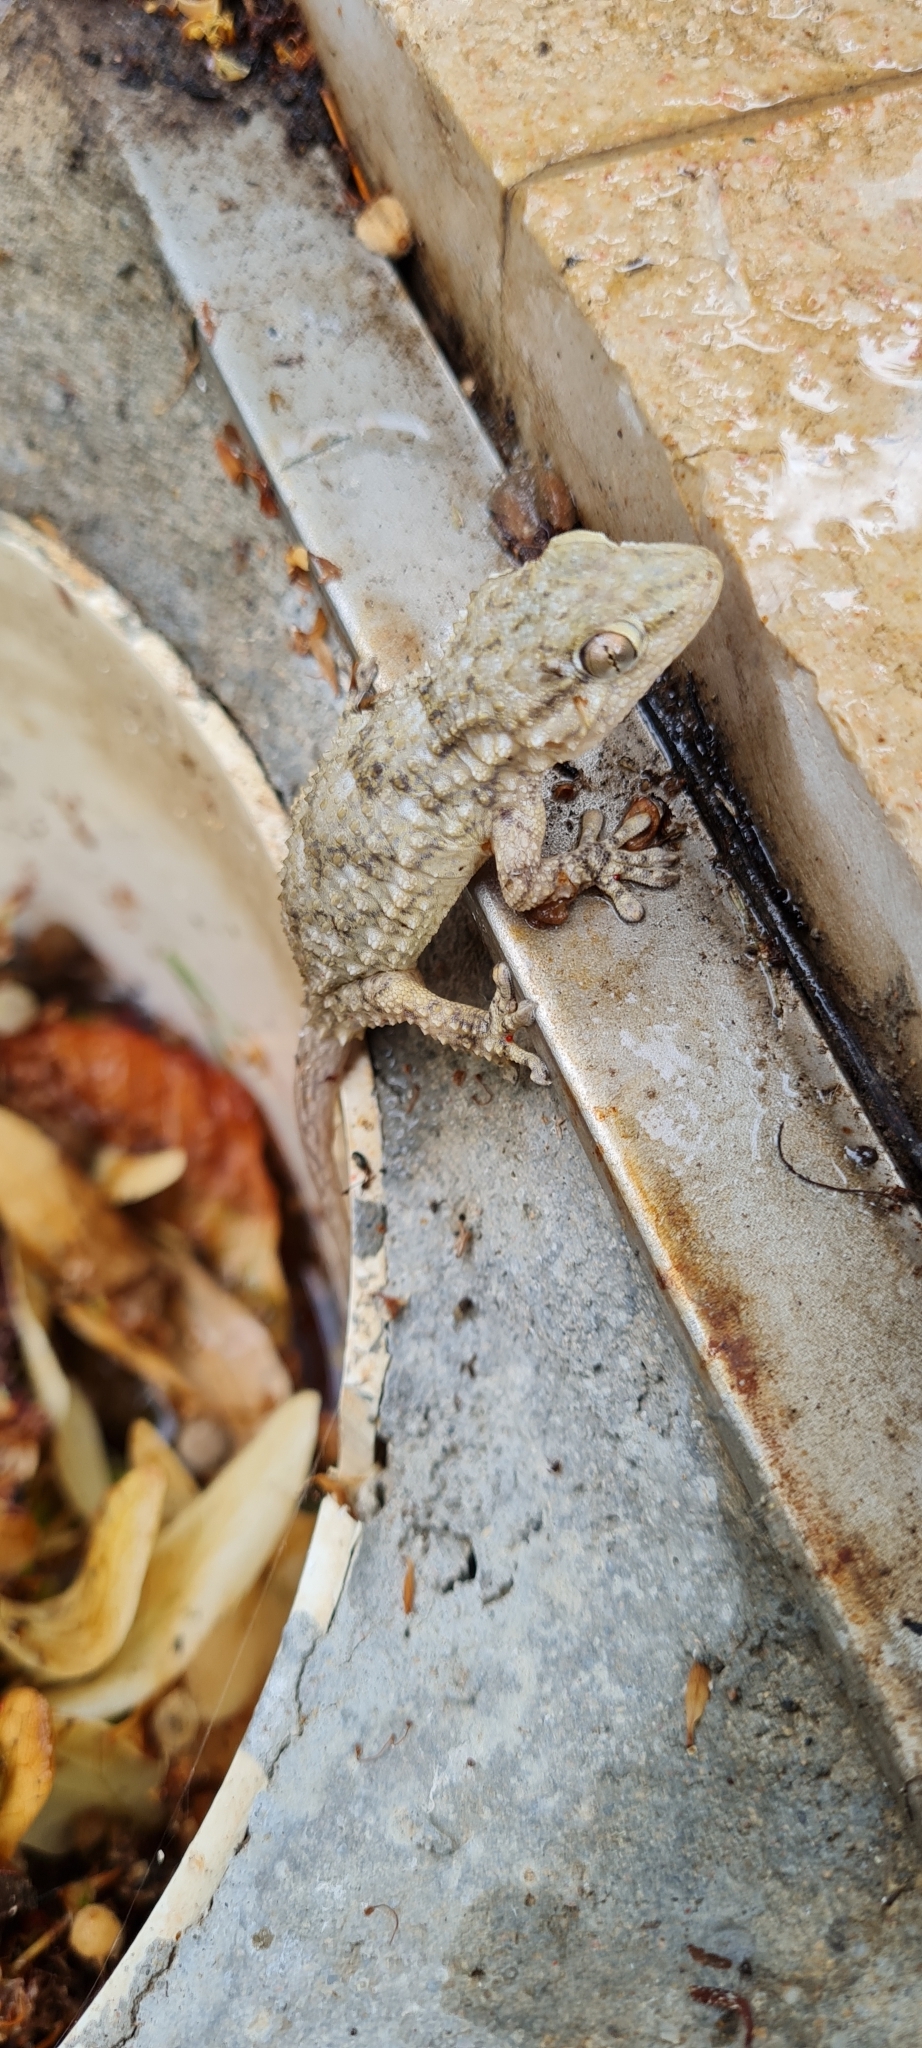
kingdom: Animalia
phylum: Chordata
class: Squamata
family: Phyllodactylidae
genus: Tarentola
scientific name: Tarentola mauritanica
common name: Moorish gecko
